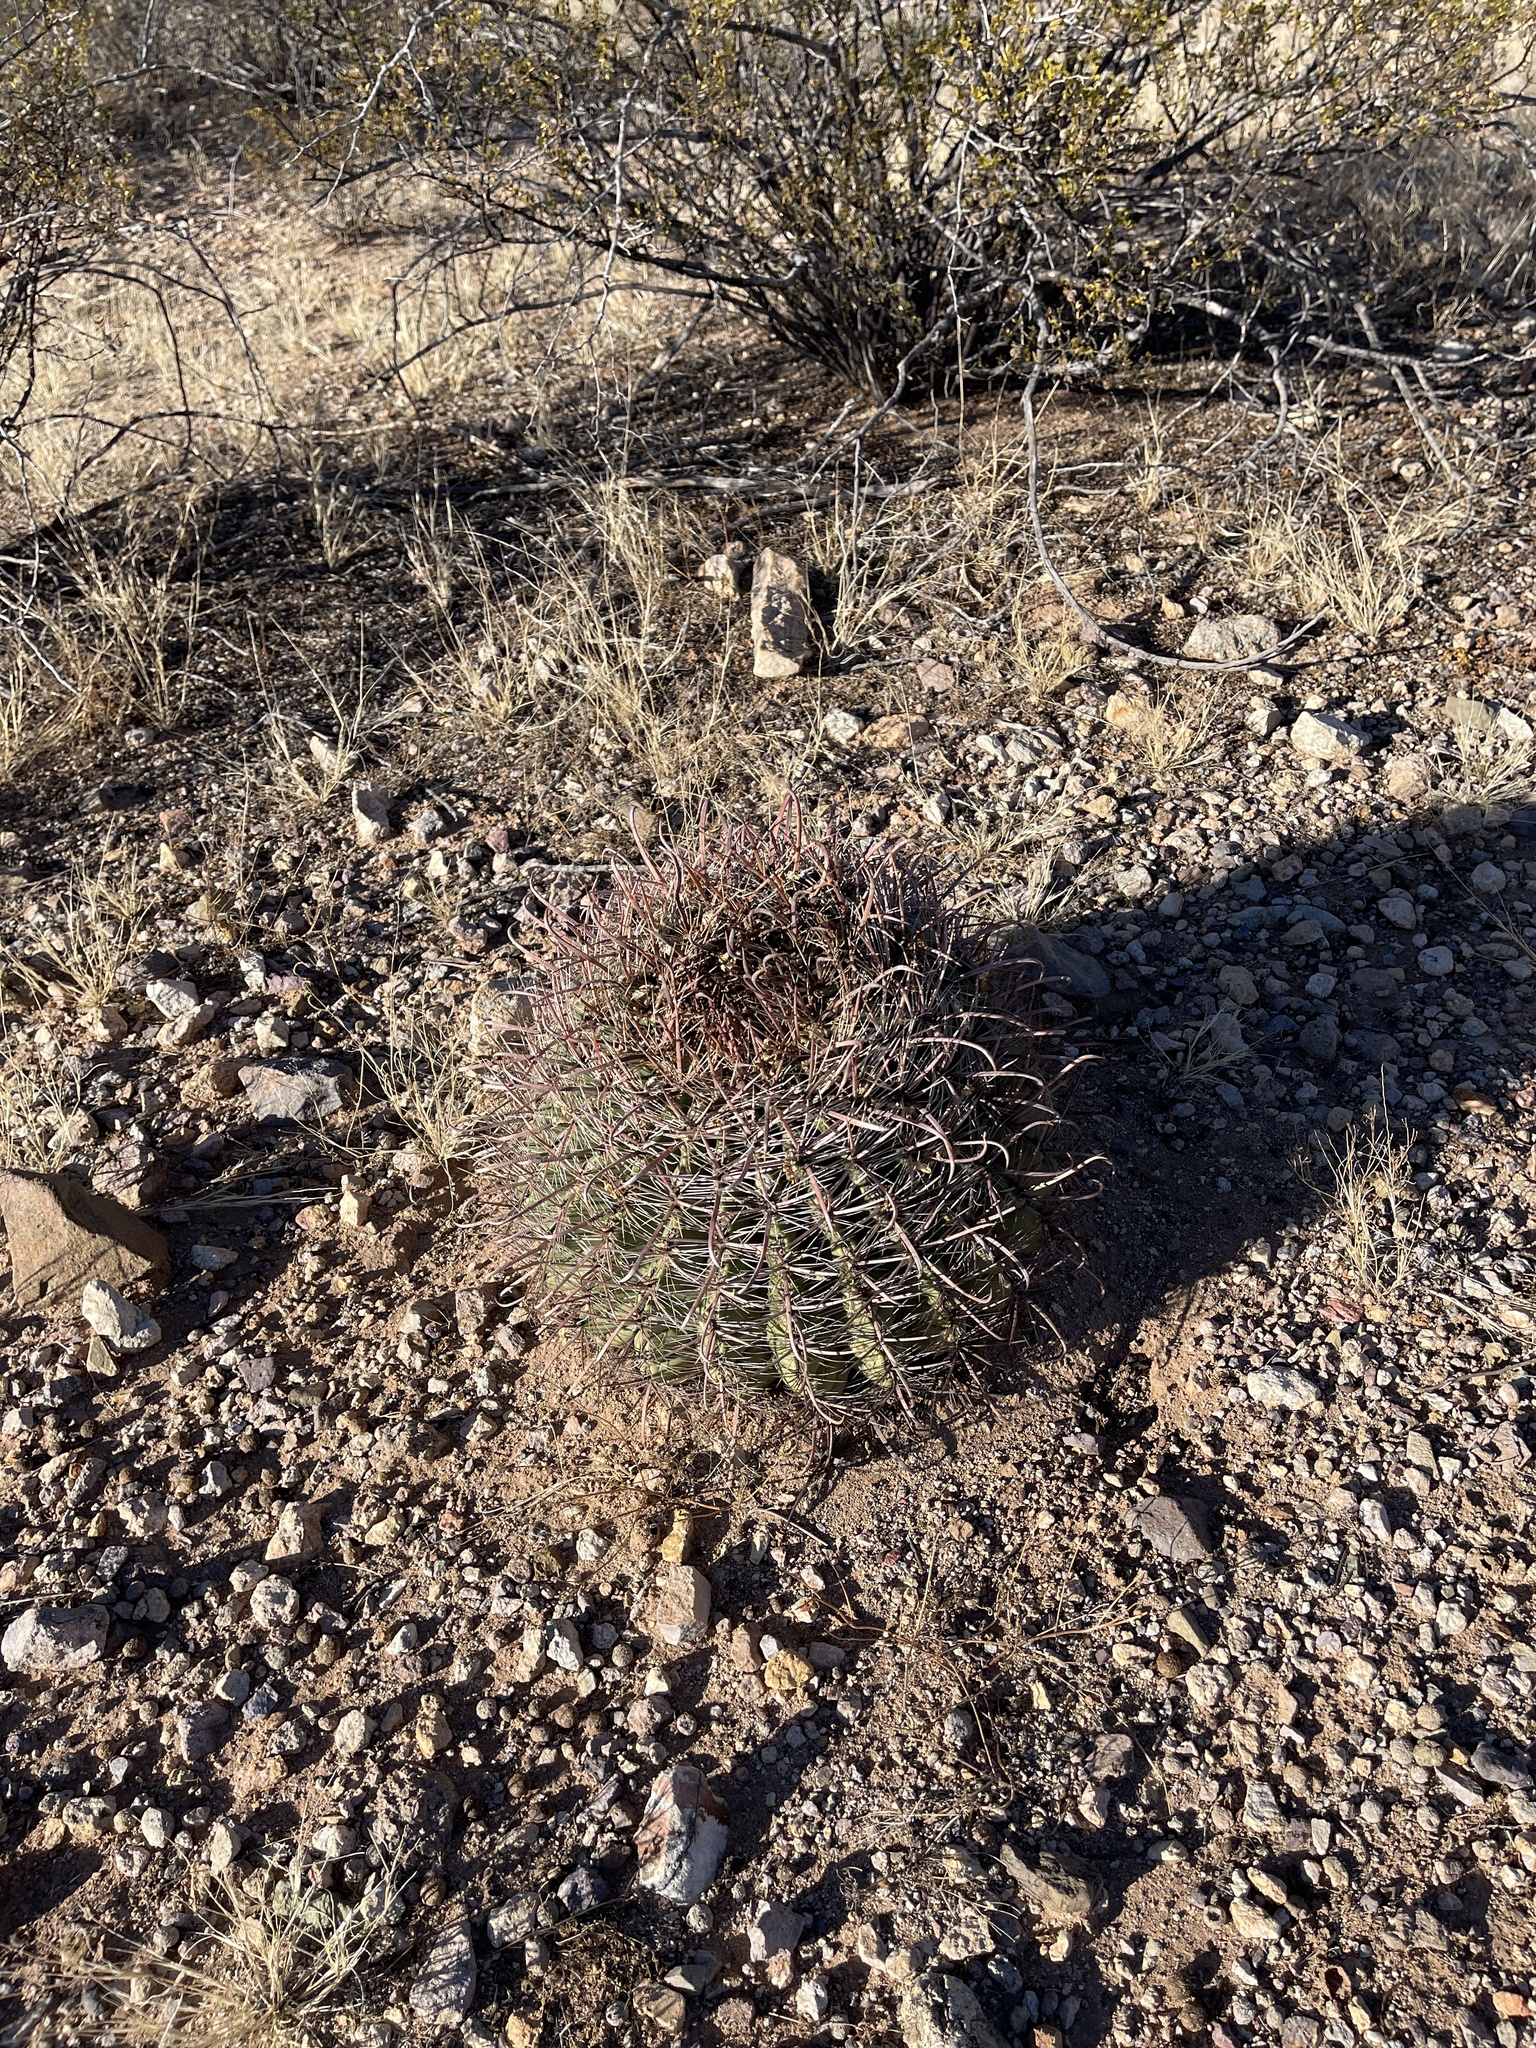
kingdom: Plantae
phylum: Tracheophyta
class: Magnoliopsida
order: Caryophyllales
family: Cactaceae
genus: Ferocactus
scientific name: Ferocactus wislizeni
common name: Candy barrel cactus
